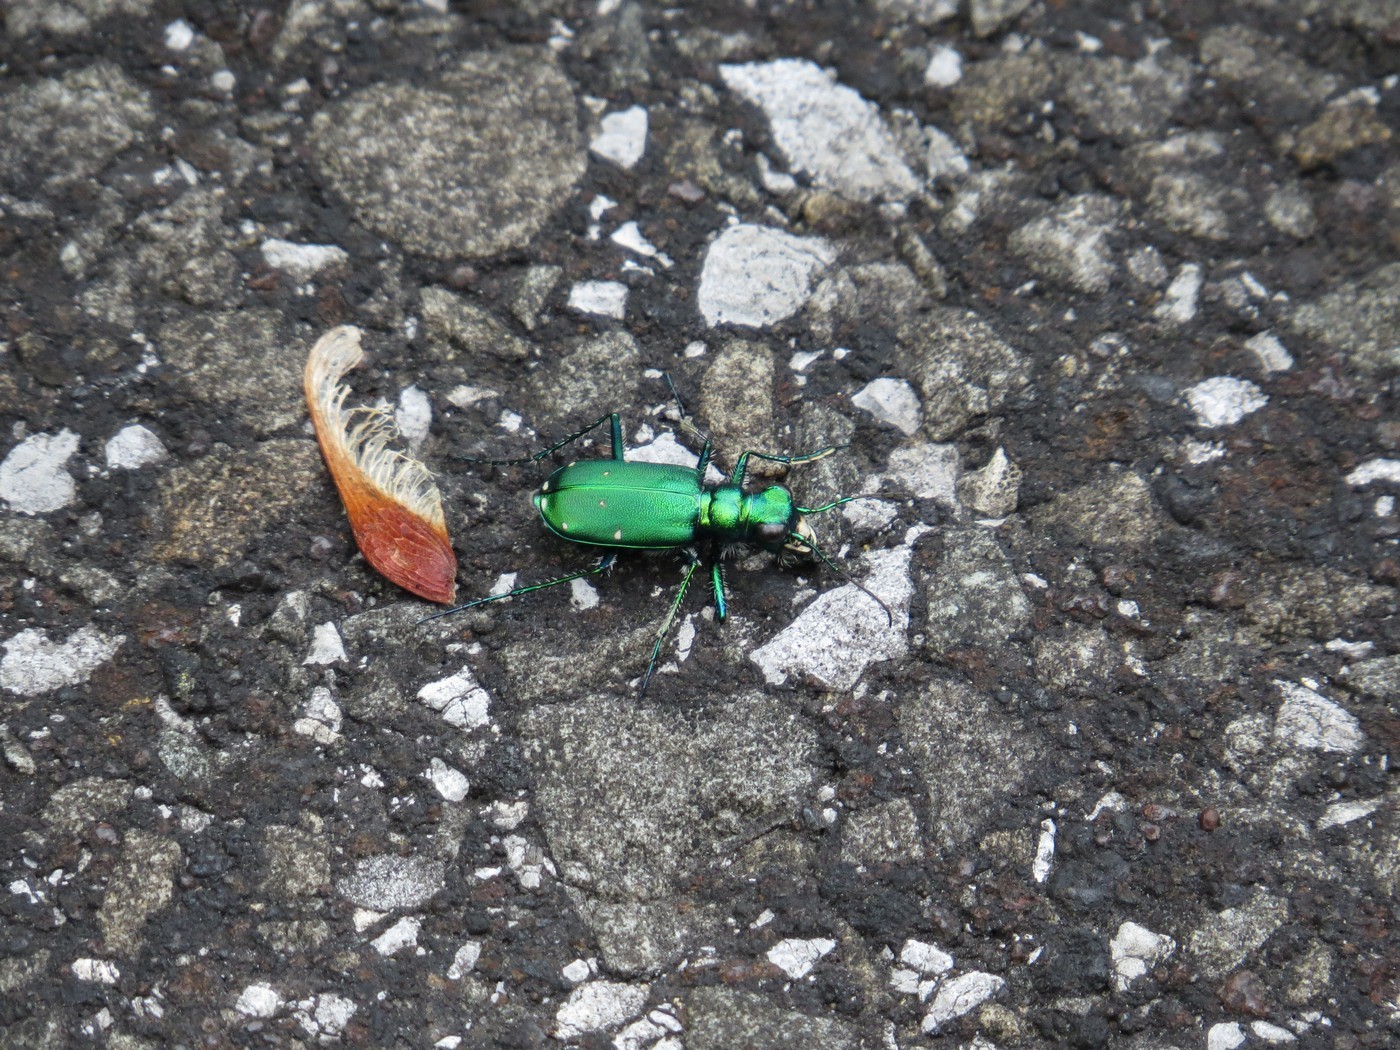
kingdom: Animalia
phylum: Arthropoda
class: Insecta
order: Coleoptera
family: Carabidae
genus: Cicindela
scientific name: Cicindela sexguttata
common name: Six-spotted tiger beetle
